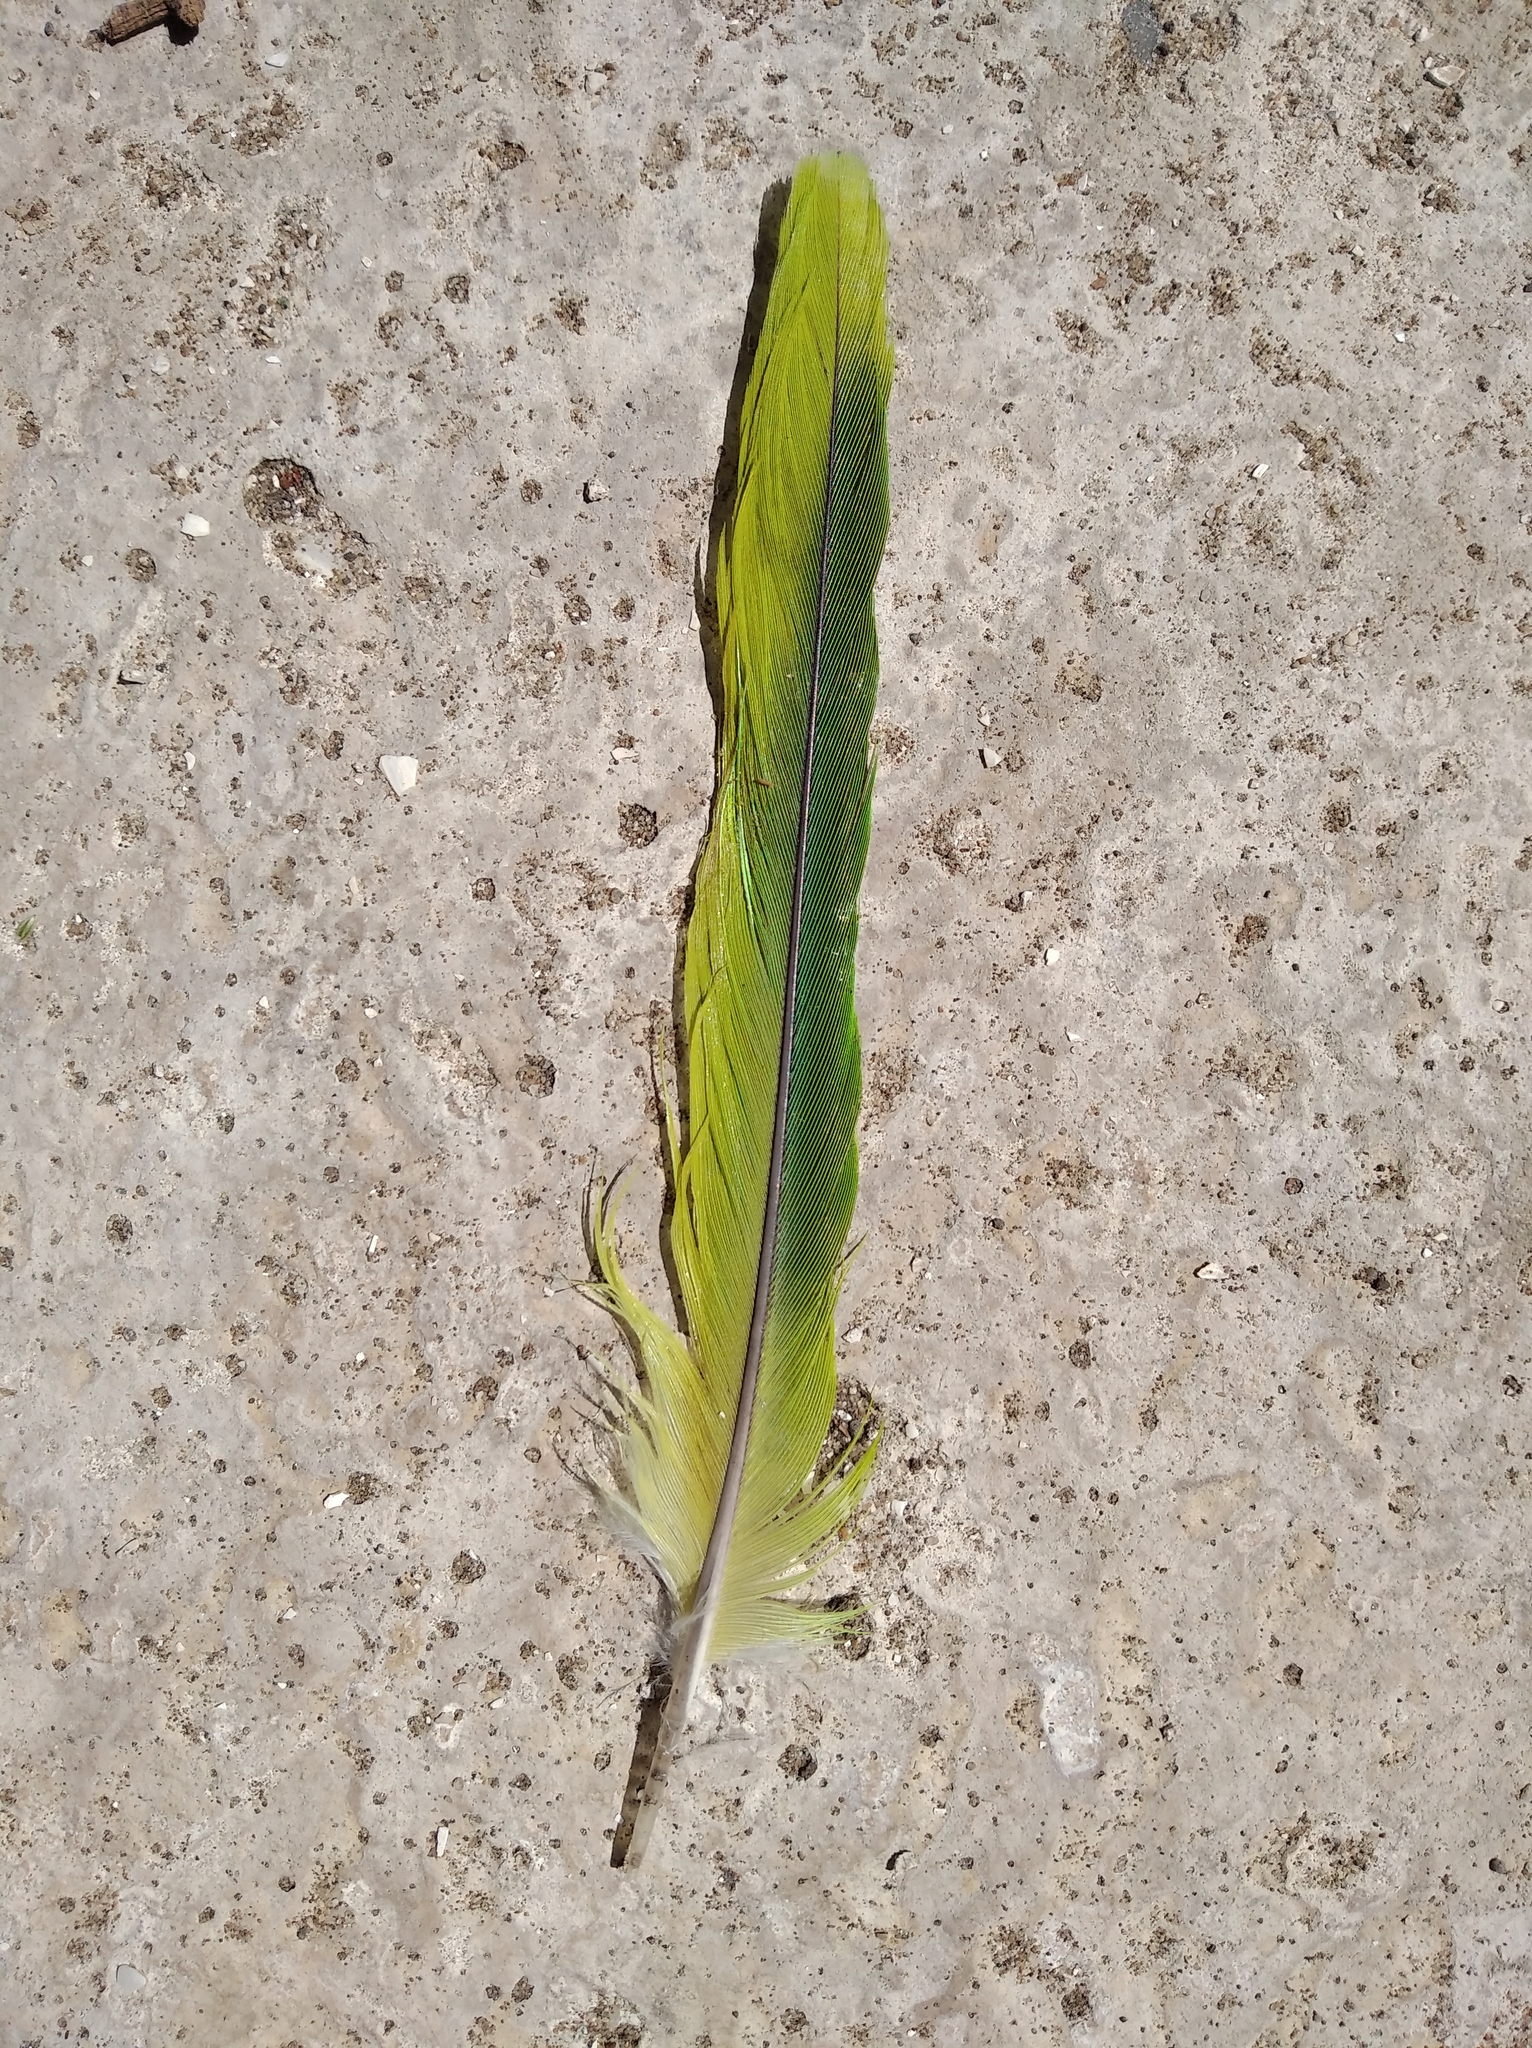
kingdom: Animalia
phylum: Chordata
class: Aves
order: Psittaciformes
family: Psittacidae
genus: Myiopsitta
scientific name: Myiopsitta monachus
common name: Monk parakeet
